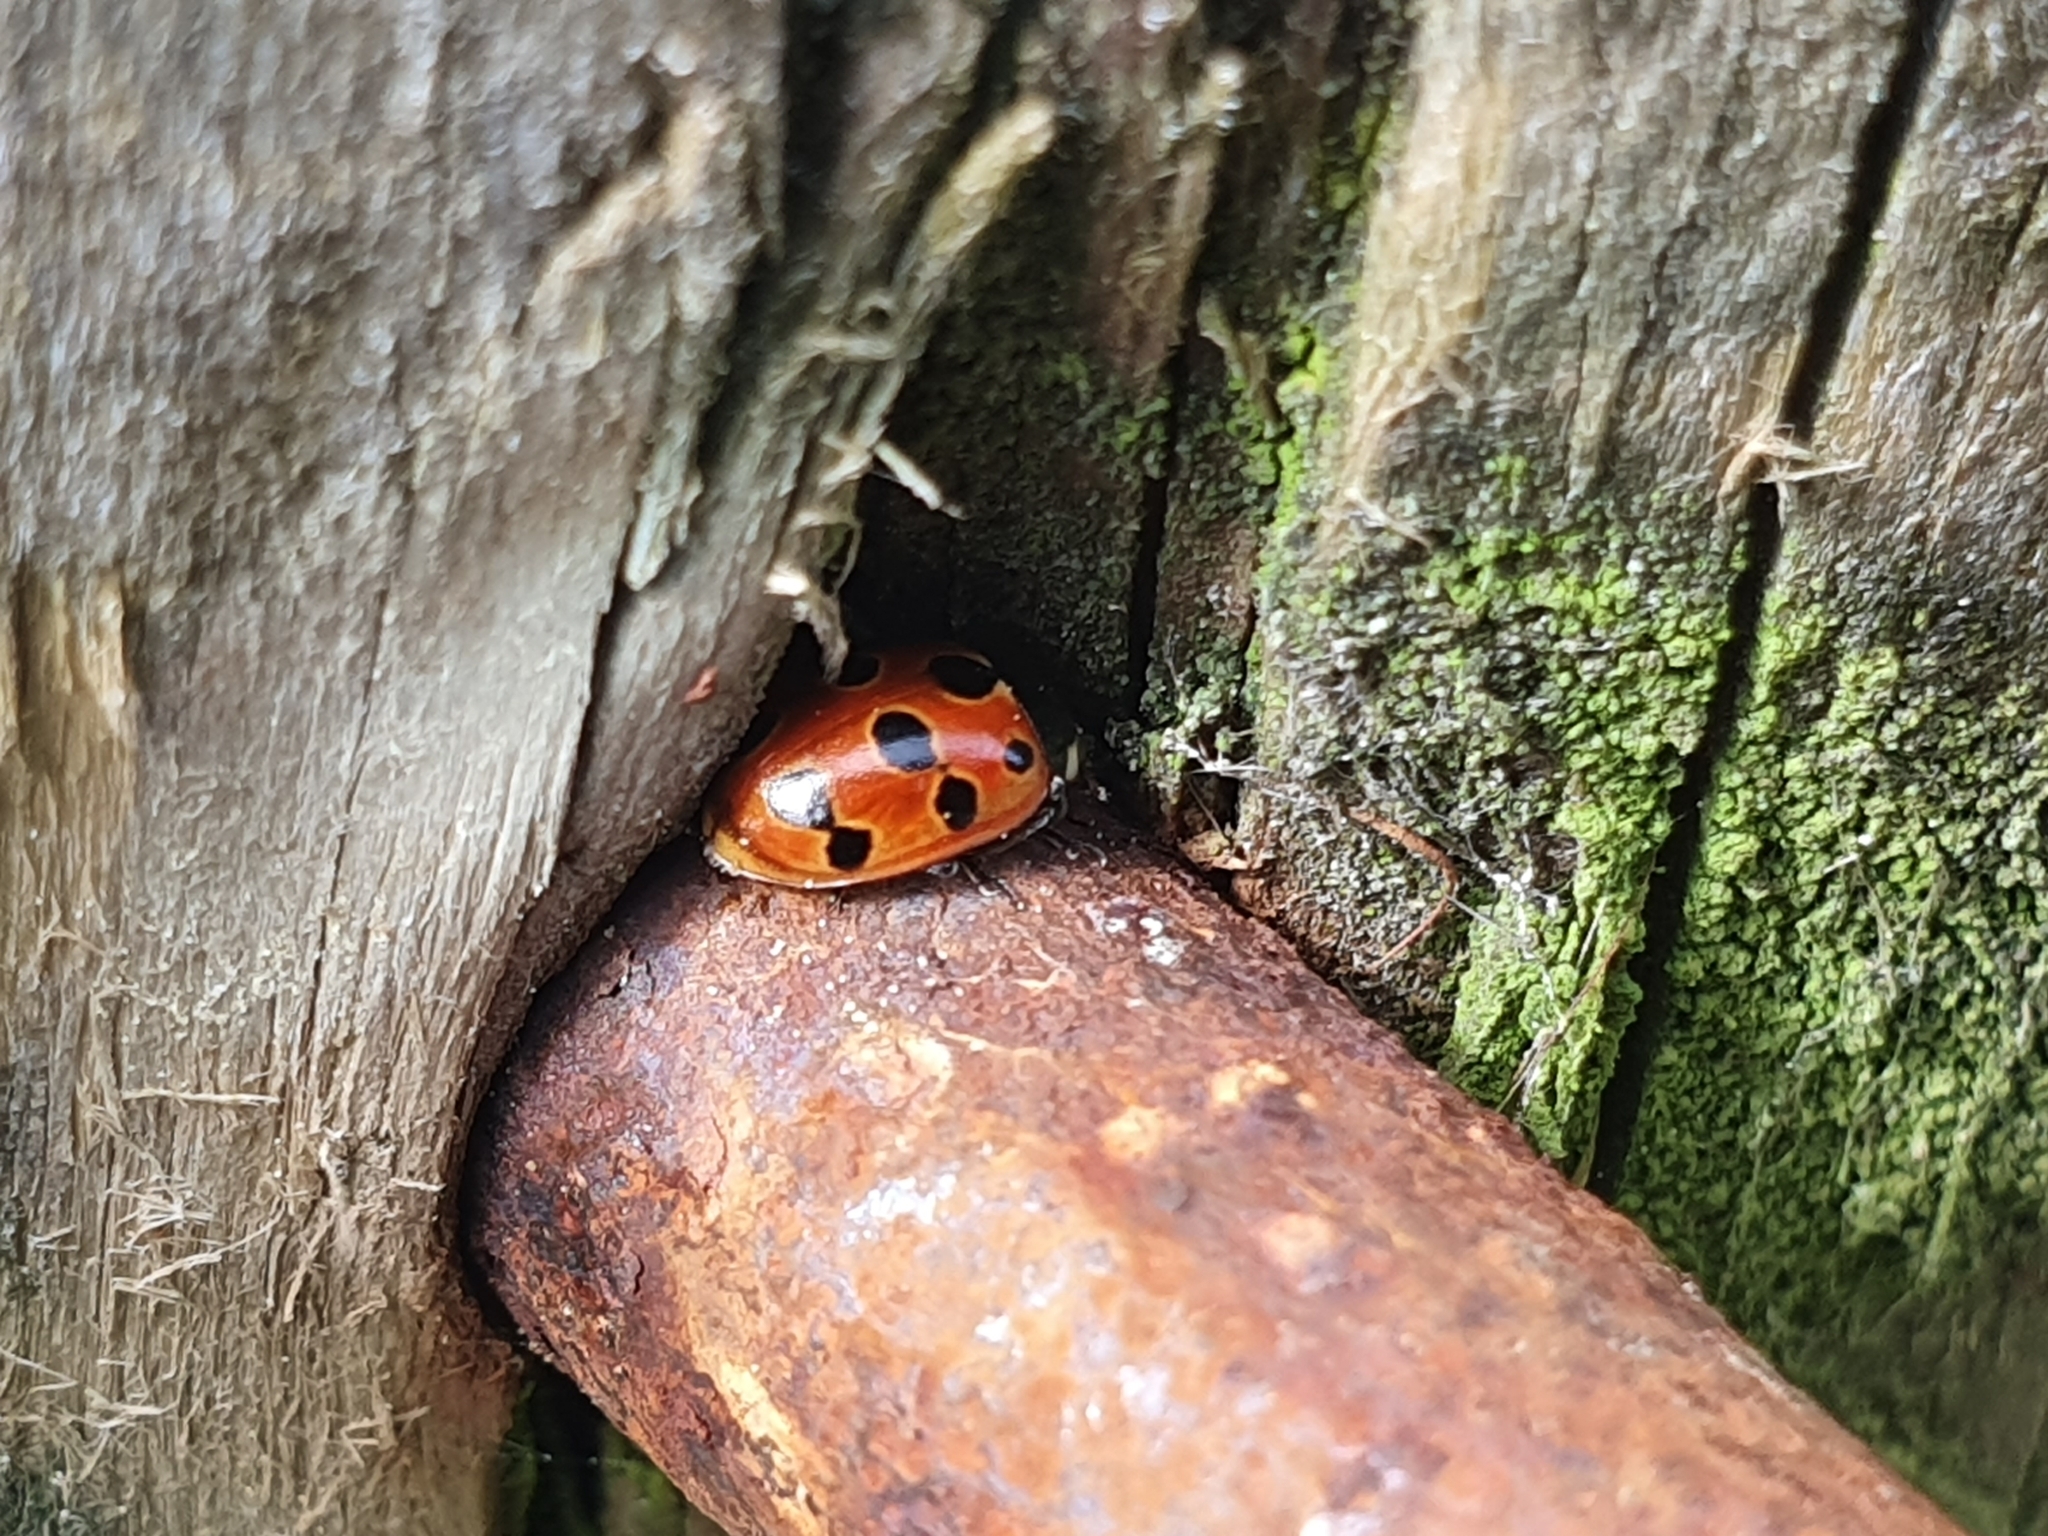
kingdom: Animalia
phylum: Arthropoda
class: Insecta
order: Coleoptera
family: Coccinellidae
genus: Coccinella
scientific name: Coccinella undecimpunctata
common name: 11-spot ladybird
